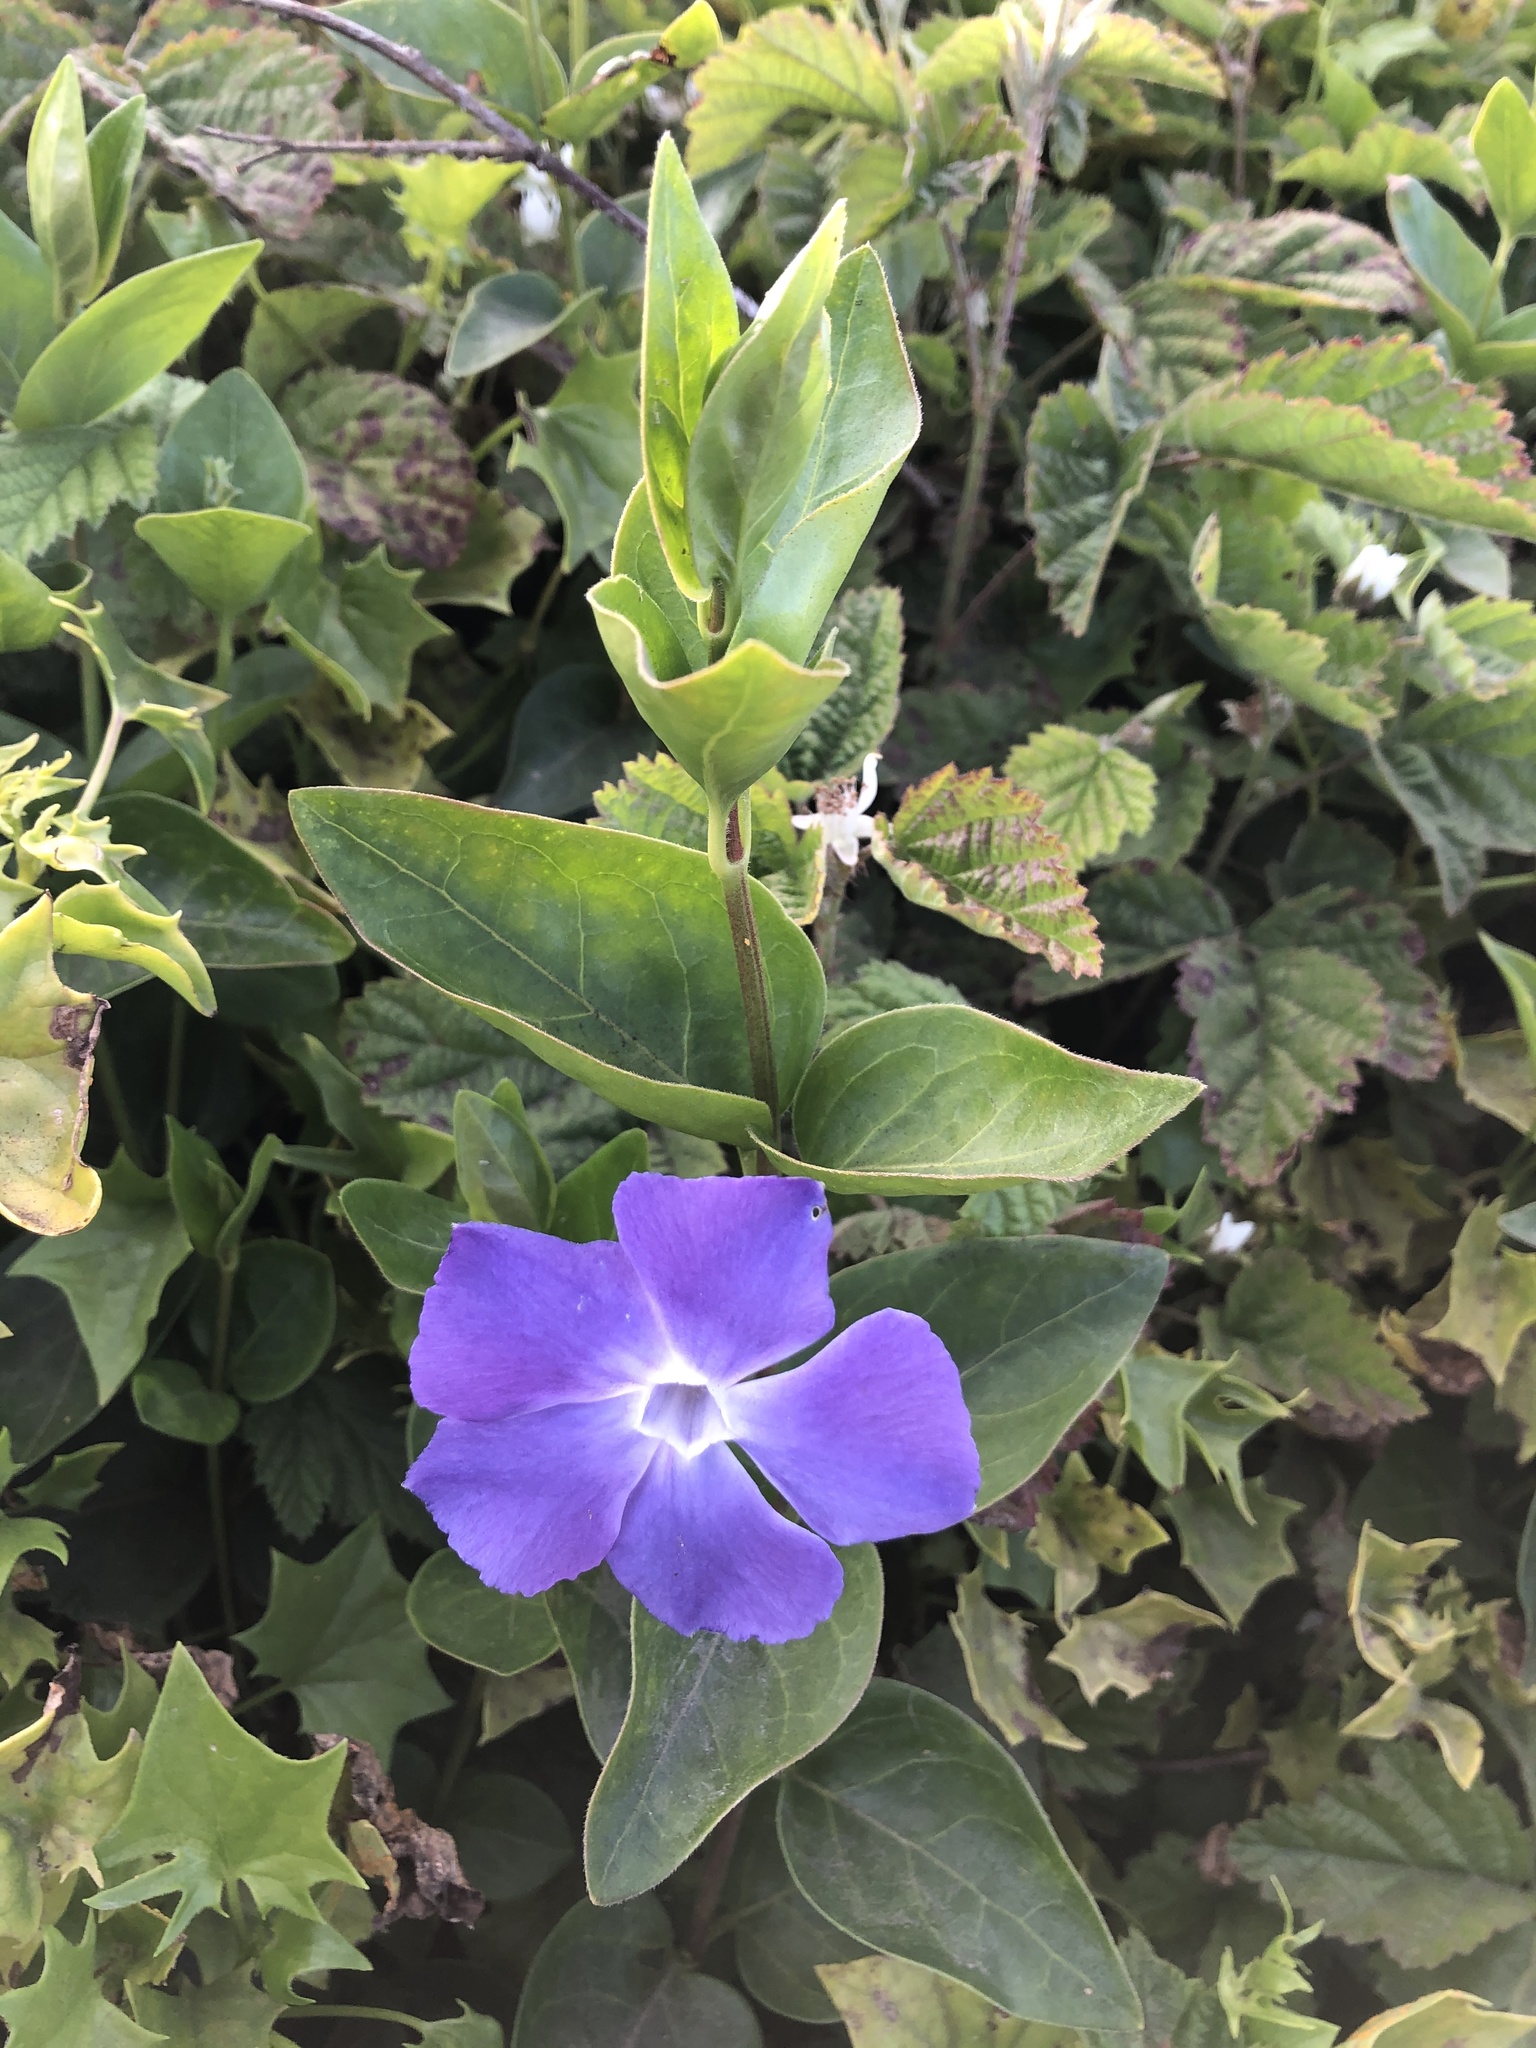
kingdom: Plantae
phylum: Tracheophyta
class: Magnoliopsida
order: Gentianales
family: Apocynaceae
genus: Vinca
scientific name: Vinca major
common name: Greater periwinkle
